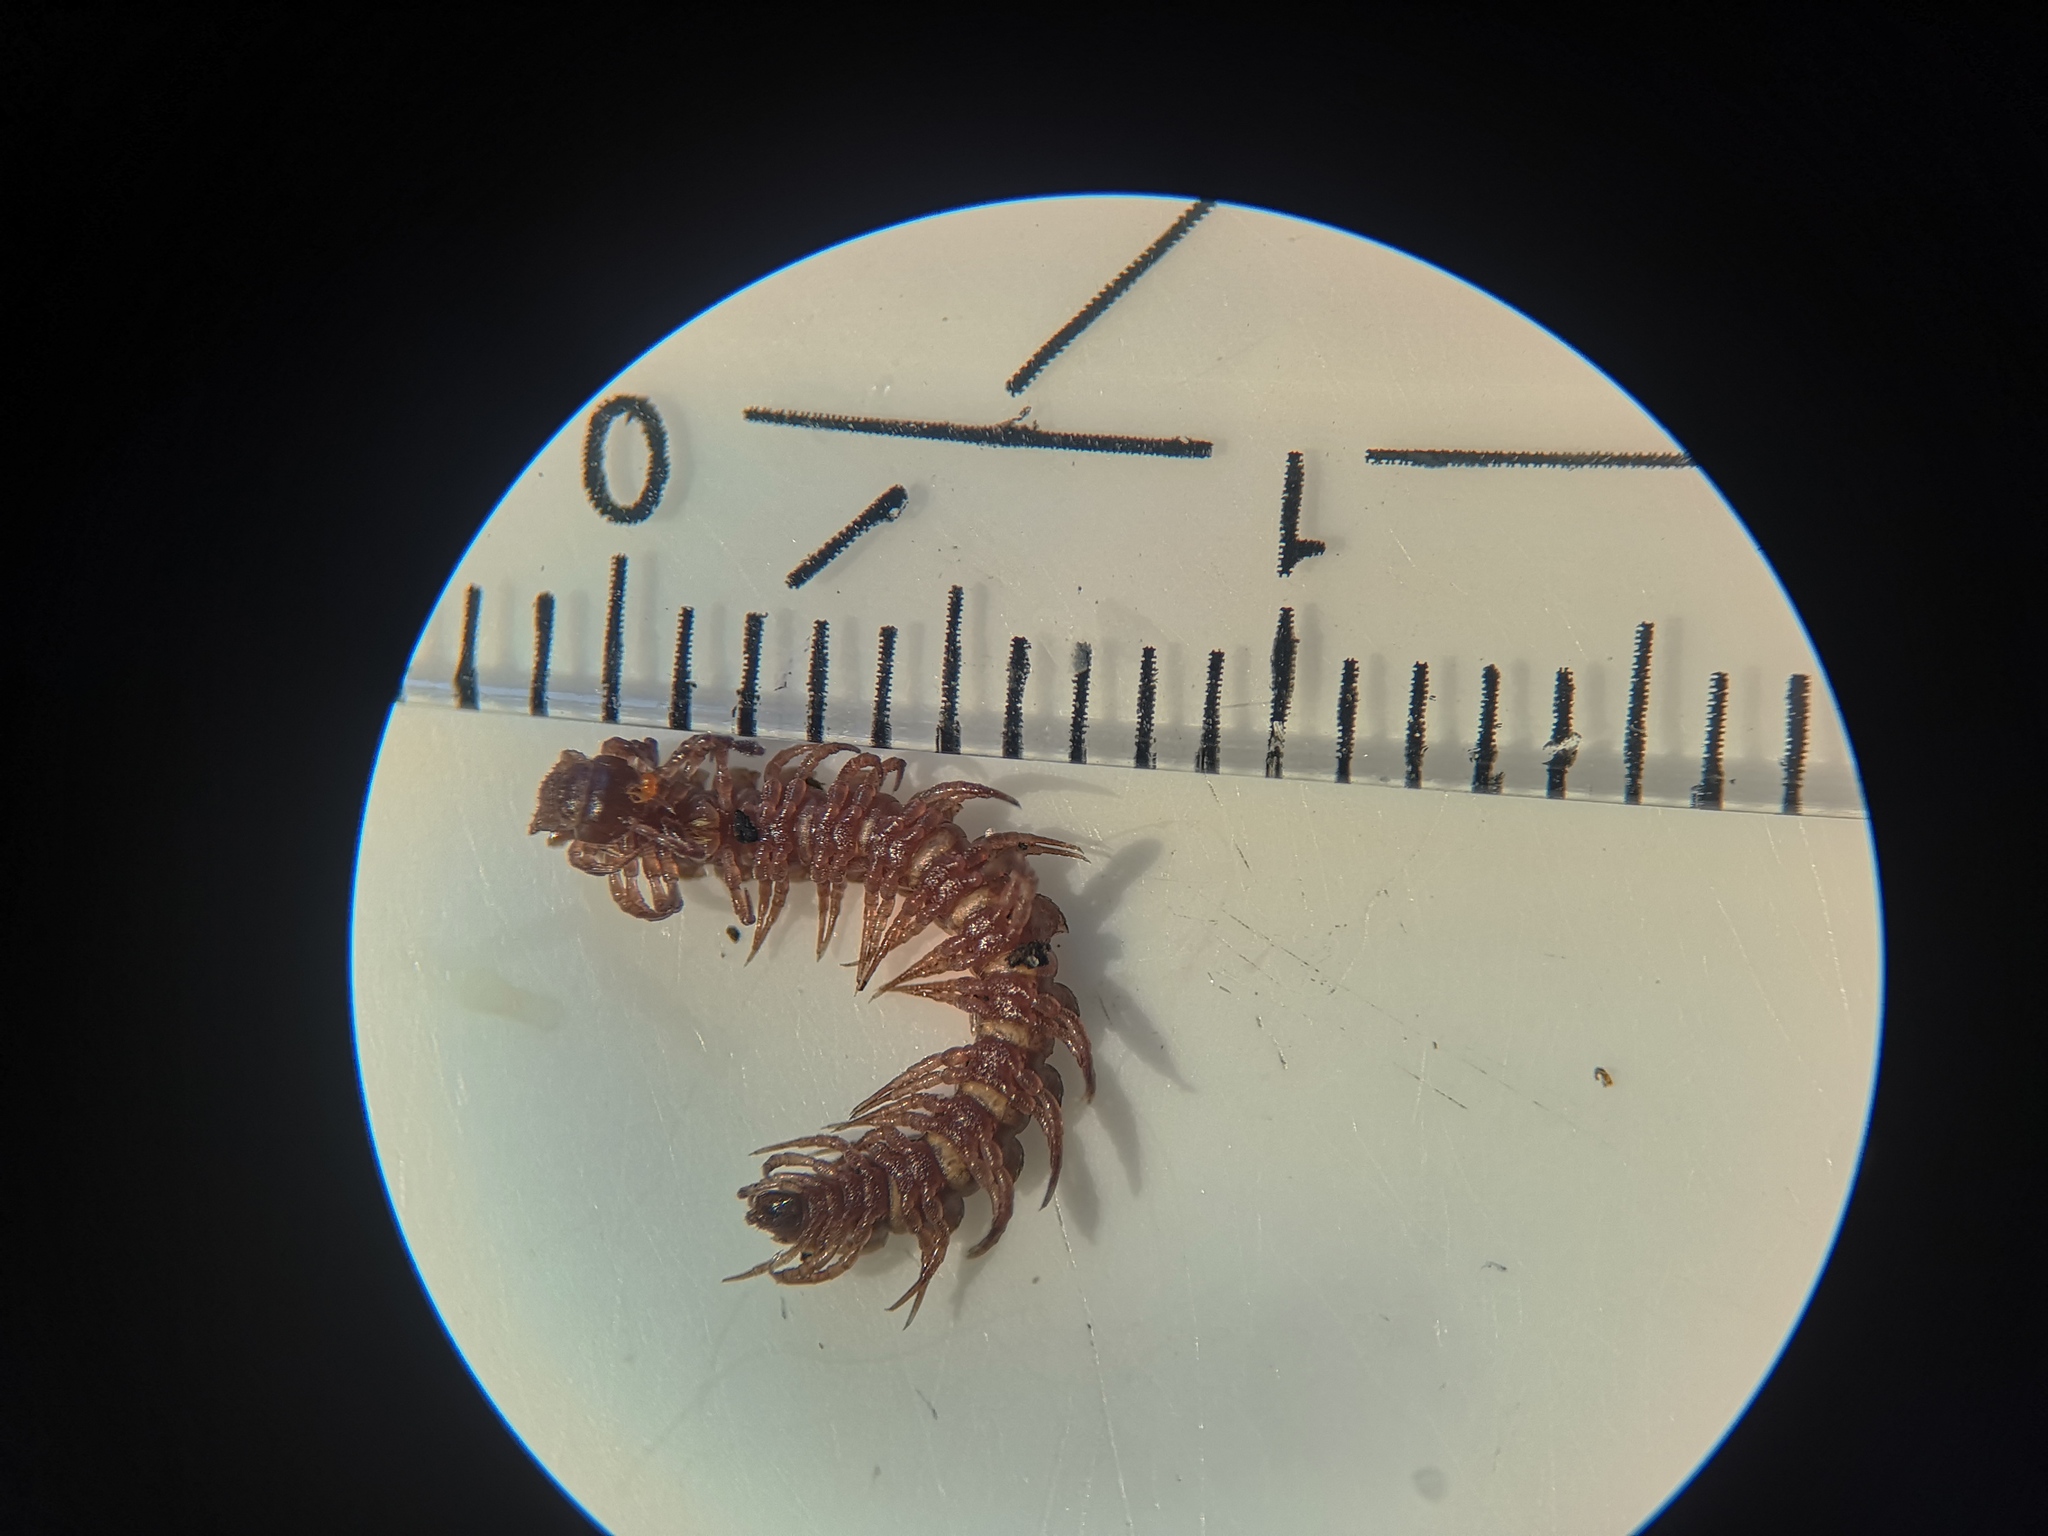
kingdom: Animalia
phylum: Arthropoda
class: Diplopoda
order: Polydesmida
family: Polydesmidae
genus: Polydesmus
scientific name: Polydesmus denticulatus
